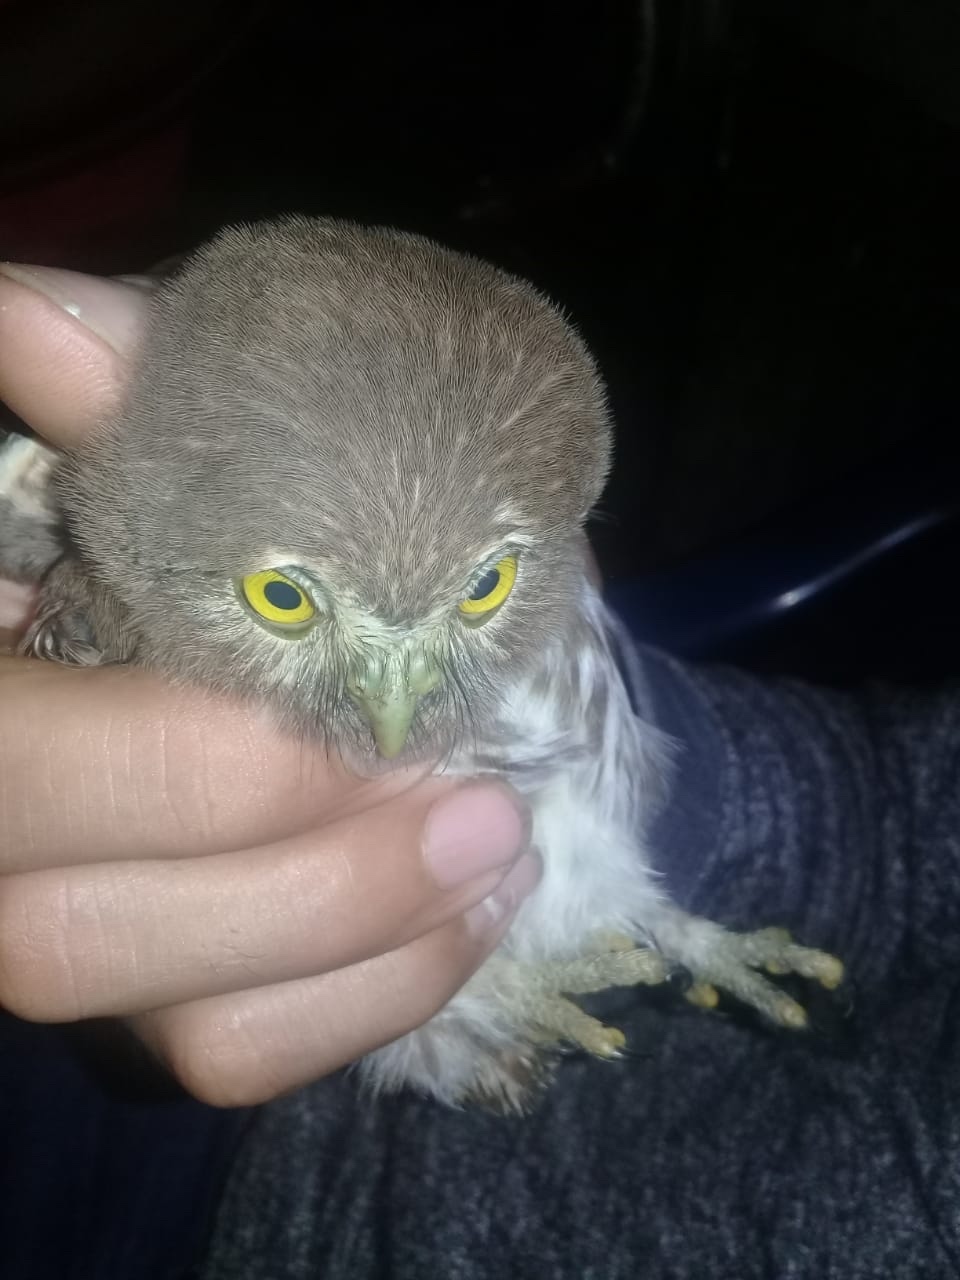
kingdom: Animalia
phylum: Chordata
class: Aves
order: Strigiformes
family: Strigidae
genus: Glaucidium
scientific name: Glaucidium brasilianum
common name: Ferruginous pygmy-owl
